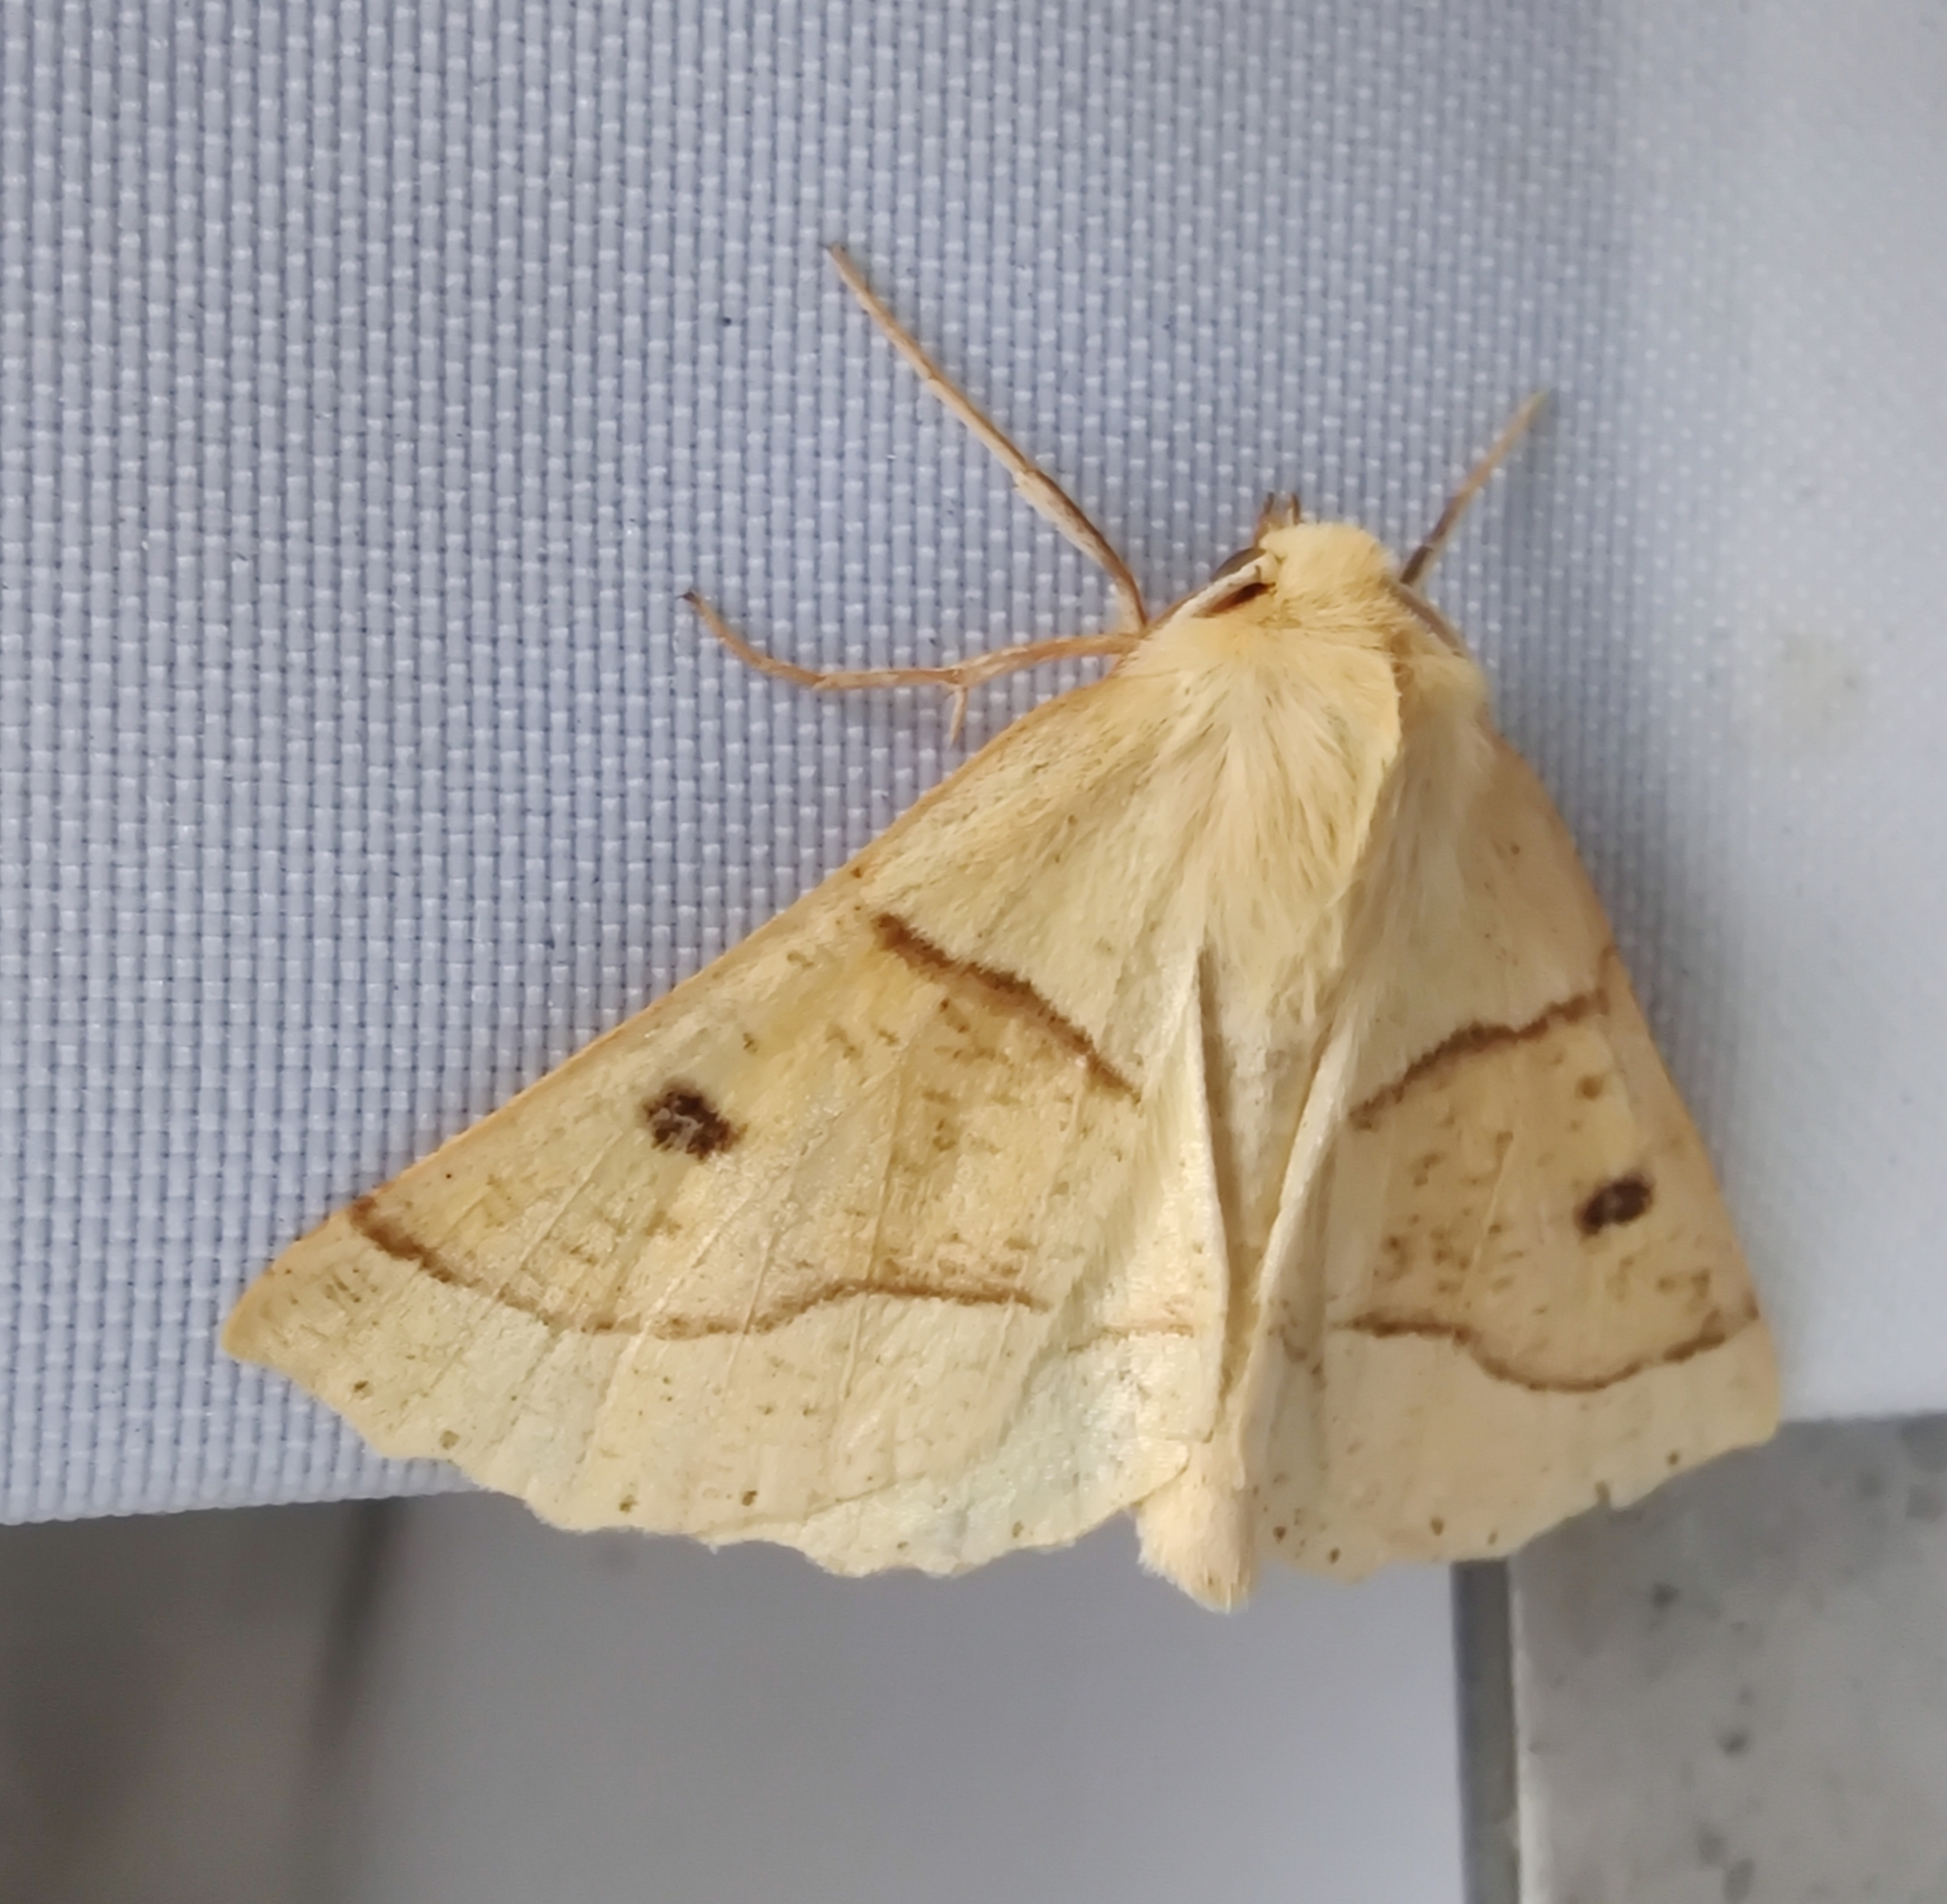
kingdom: Animalia
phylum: Arthropoda
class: Insecta
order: Lepidoptera
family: Geometridae
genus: Crocallis
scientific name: Crocallis elinguaria
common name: Scalloped oak
